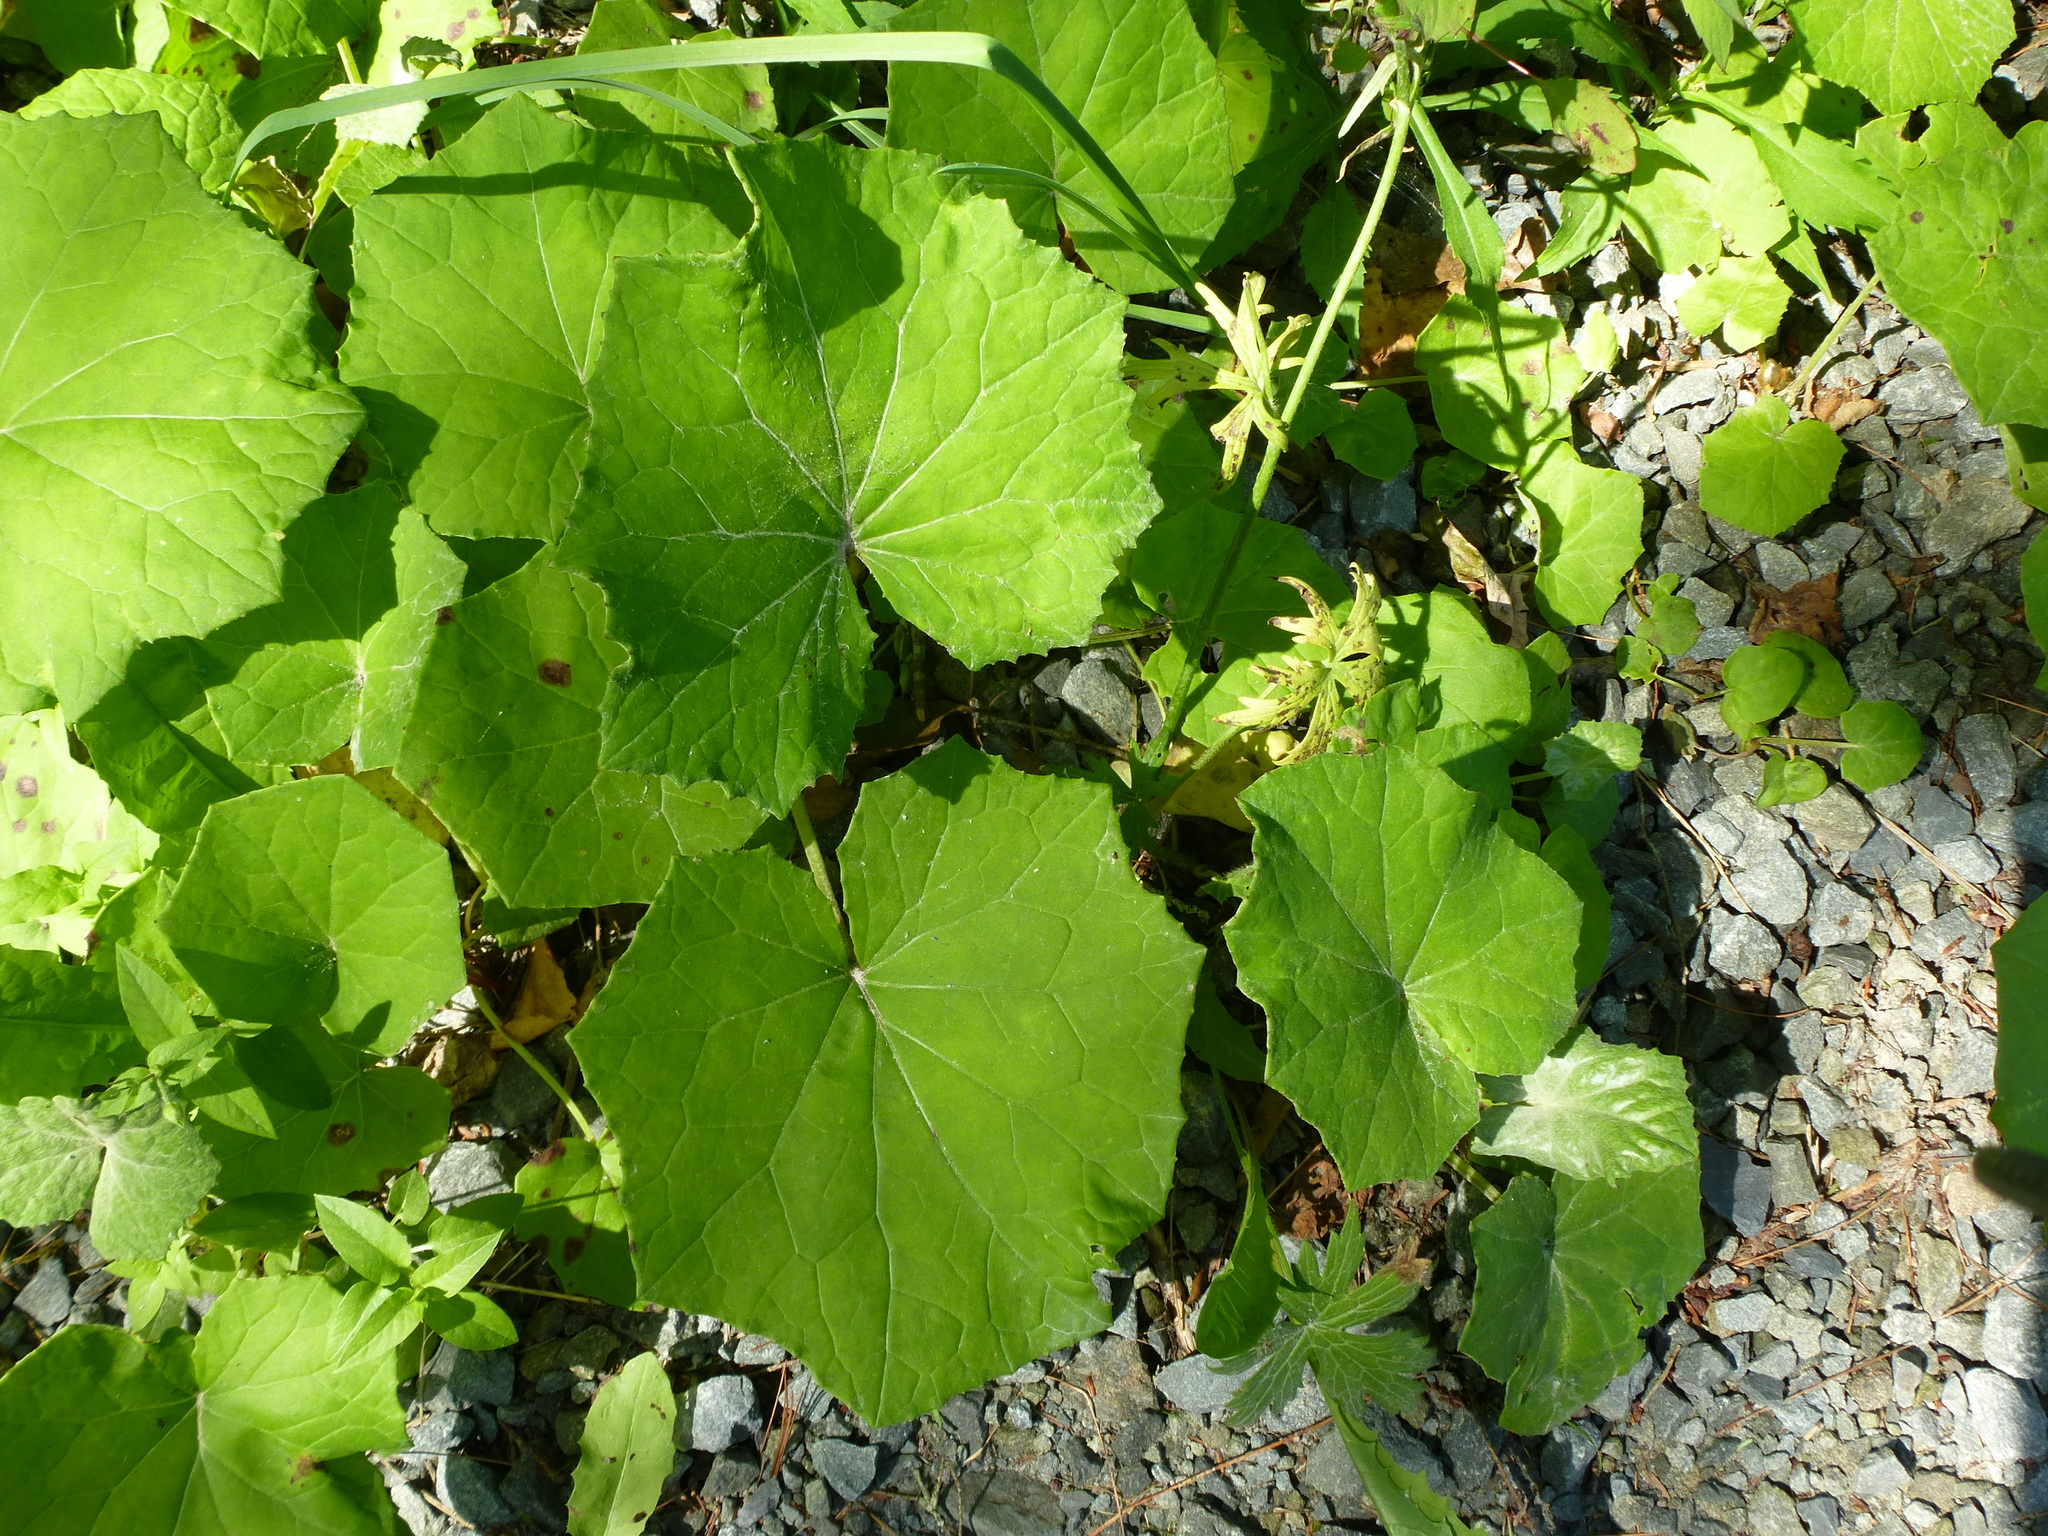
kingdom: Plantae
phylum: Tracheophyta
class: Magnoliopsida
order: Asterales
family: Asteraceae
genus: Tussilago
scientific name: Tussilago farfara
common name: Coltsfoot
